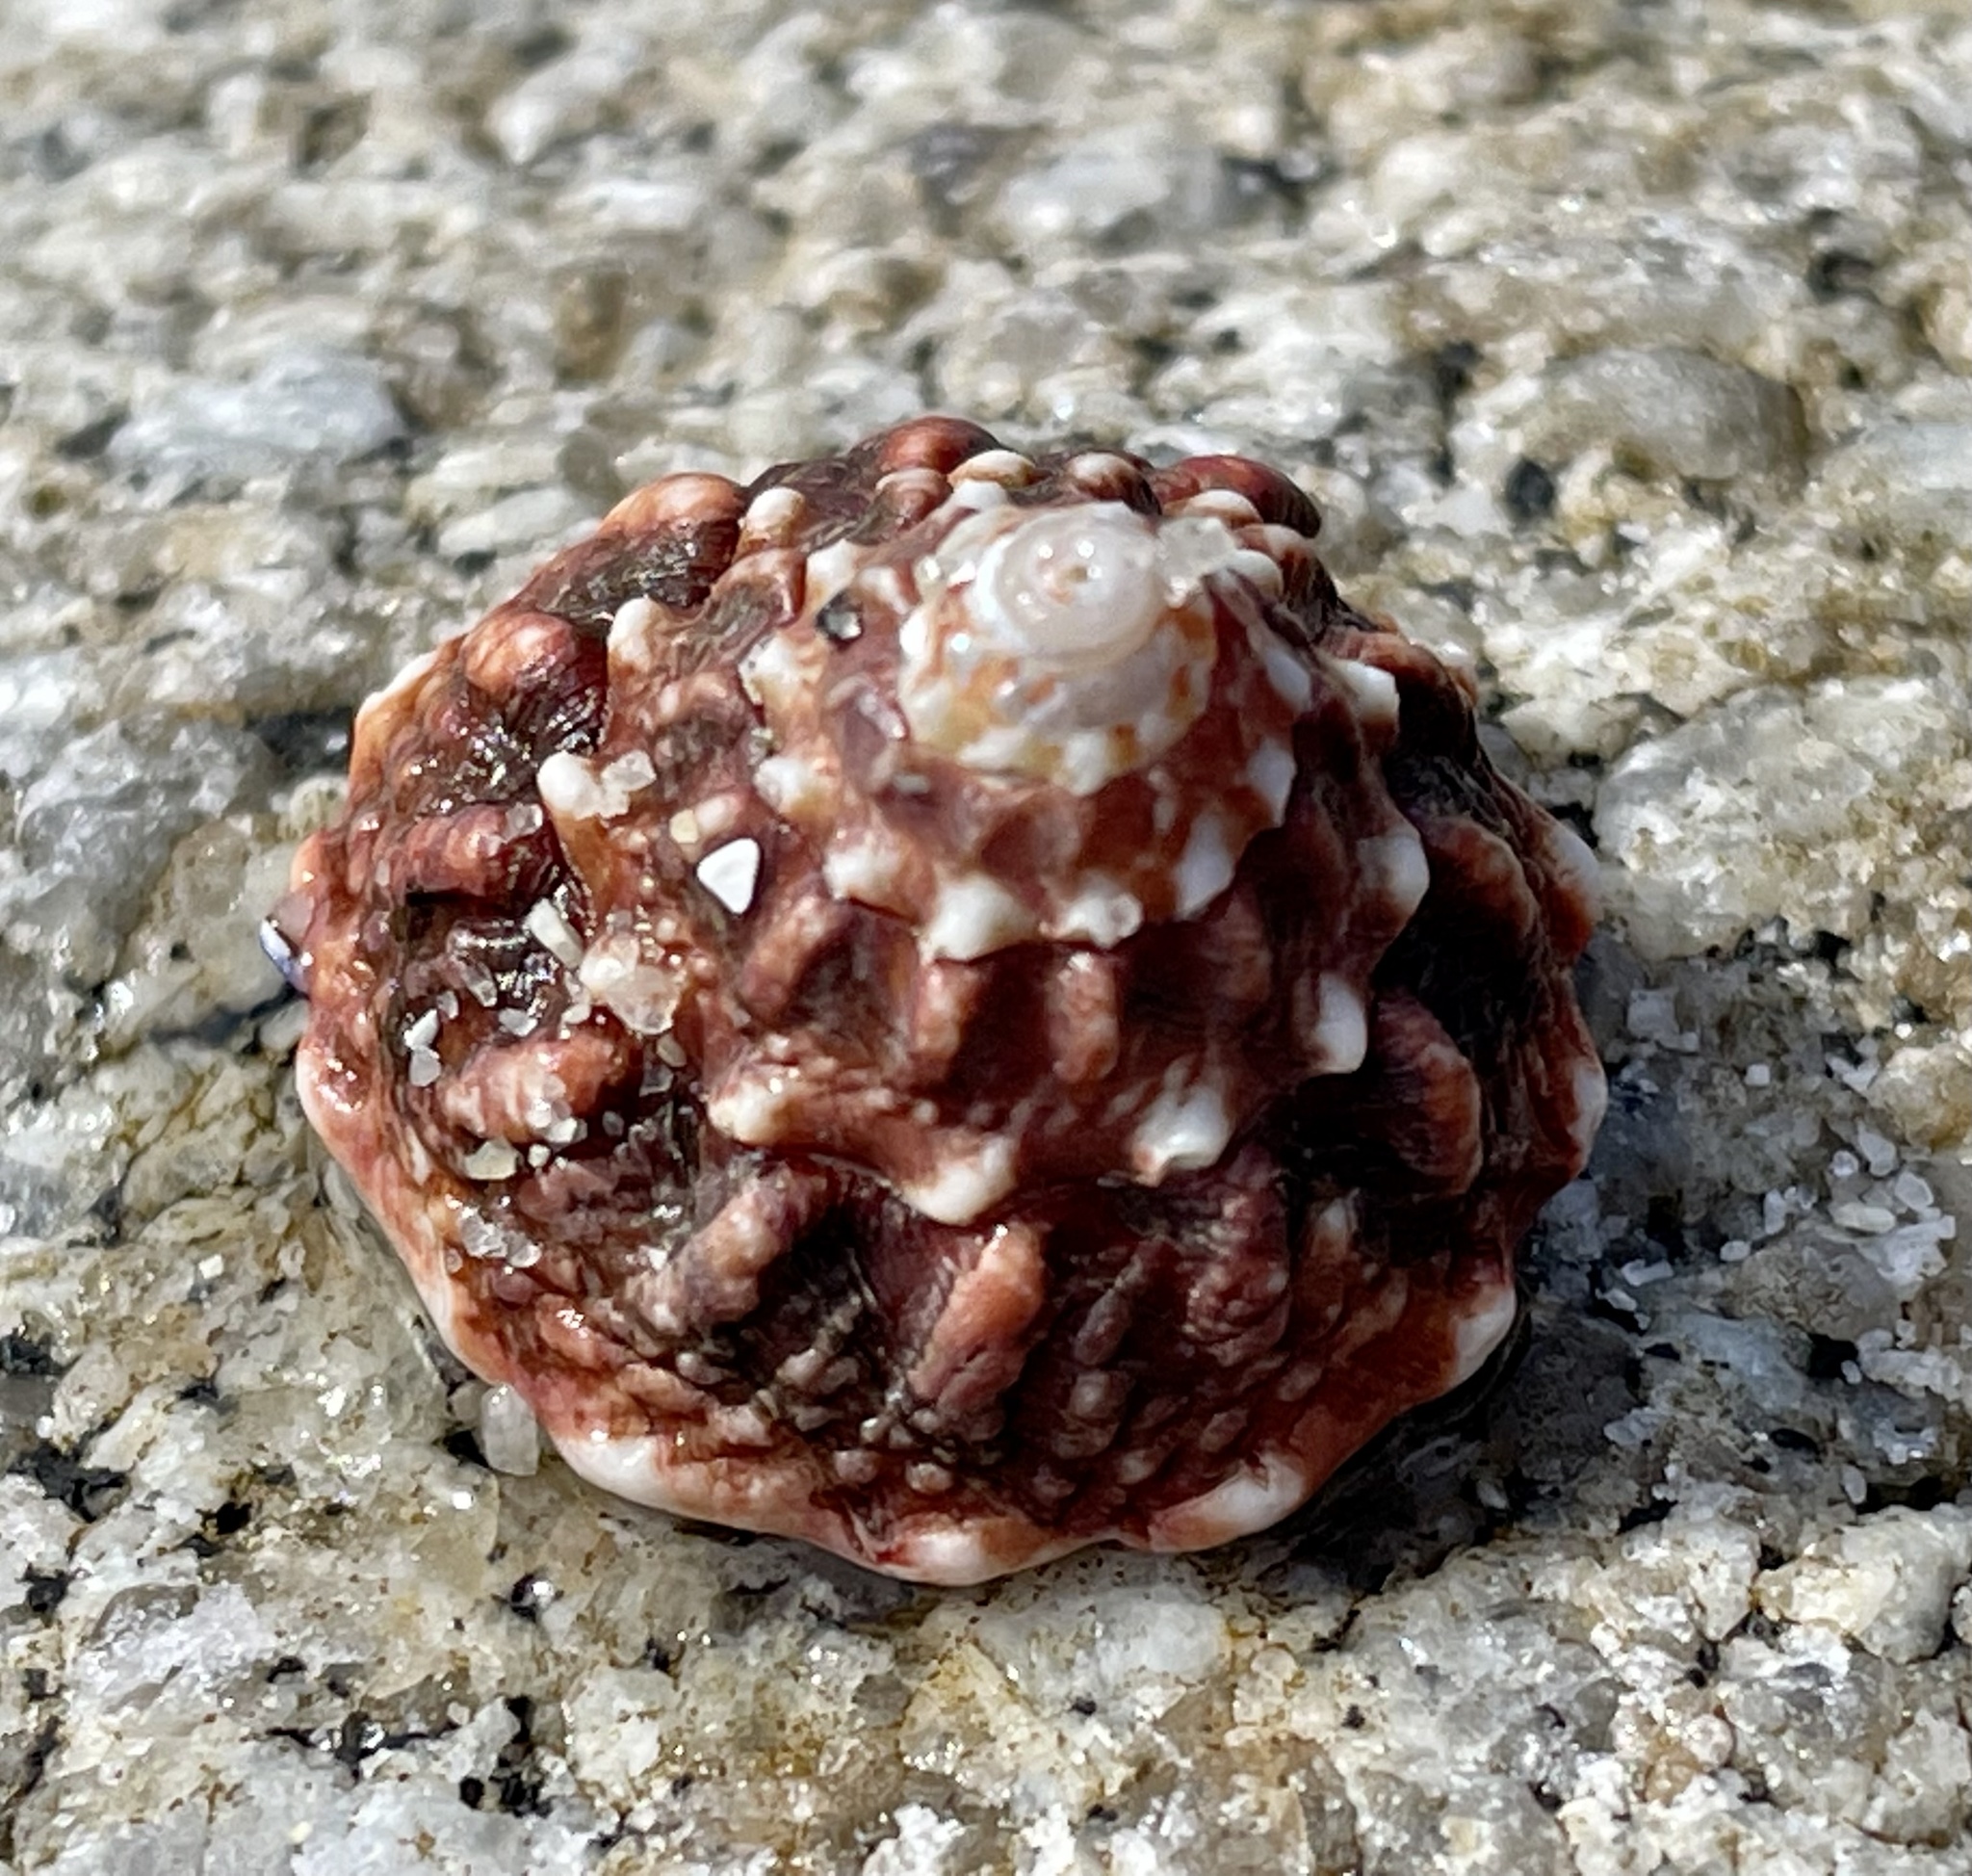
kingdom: Animalia
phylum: Mollusca
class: Gastropoda
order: Trochida
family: Turbinidae
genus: Pomaulax
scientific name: Pomaulax gibberosus
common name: Red turban
